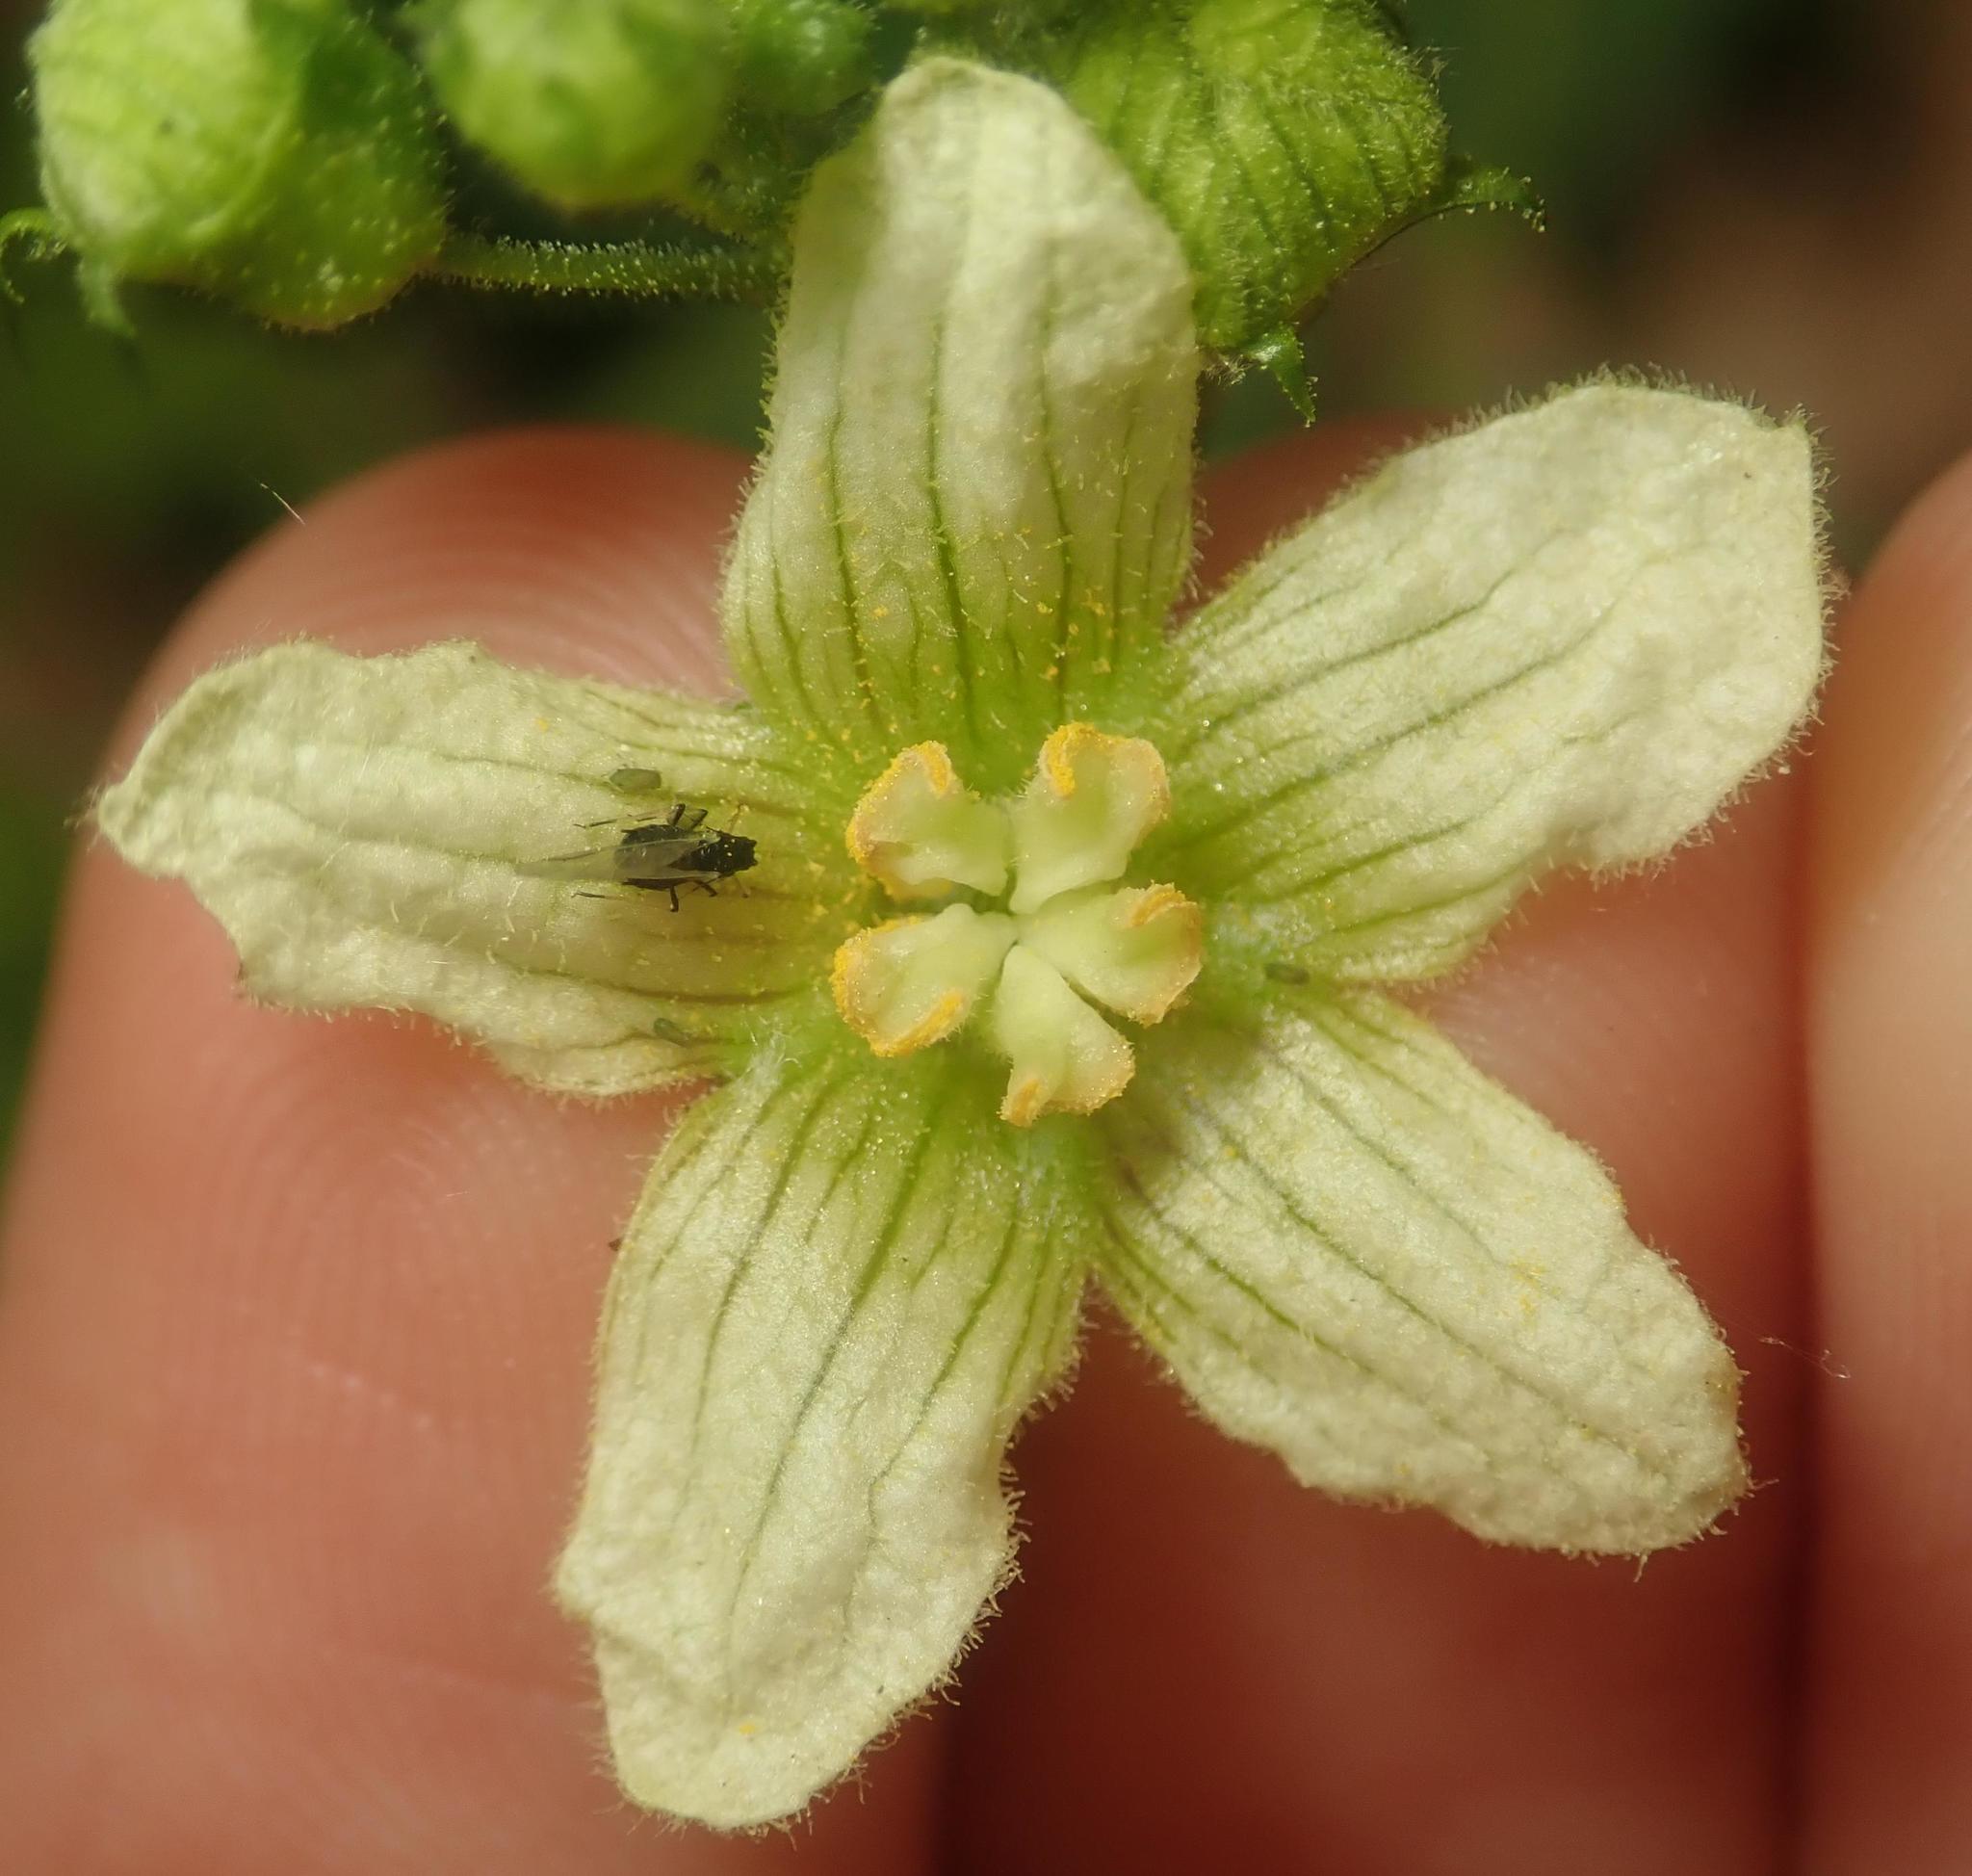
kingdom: Plantae
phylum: Tracheophyta
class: Magnoliopsida
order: Cucurbitales
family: Cucurbitaceae
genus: Bryonia
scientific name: Bryonia cretica
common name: Cretan bryony
